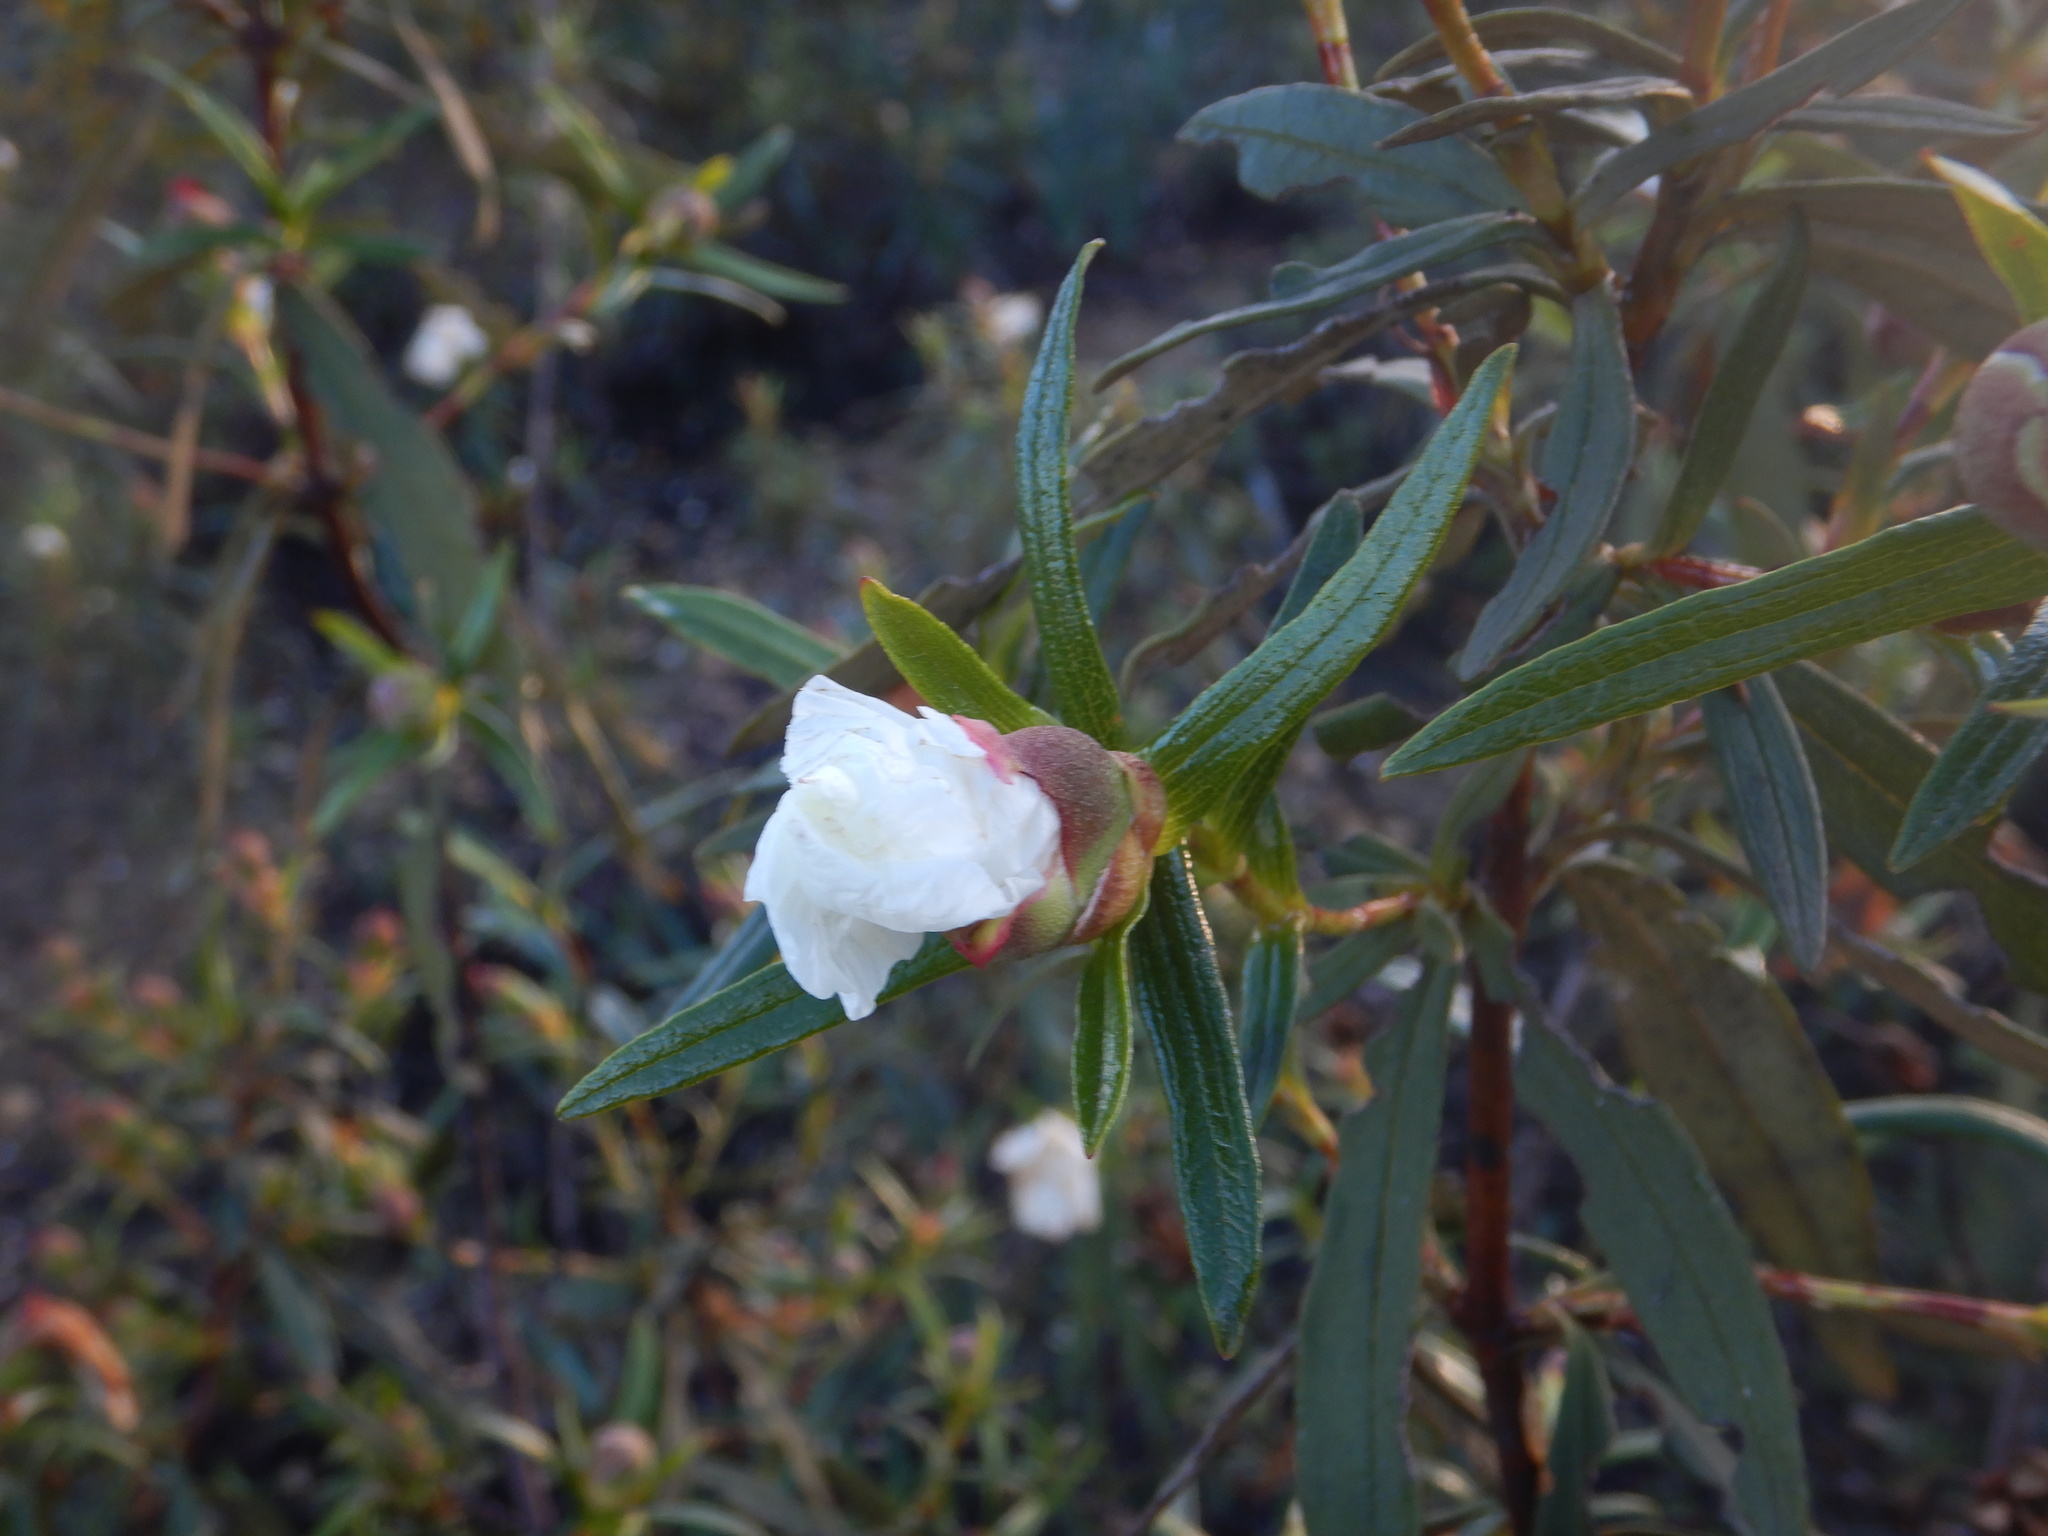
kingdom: Plantae
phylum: Tracheophyta
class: Magnoliopsida
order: Malvales
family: Cistaceae
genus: Cistus
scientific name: Cistus ladanifer
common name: Common gum cistus
